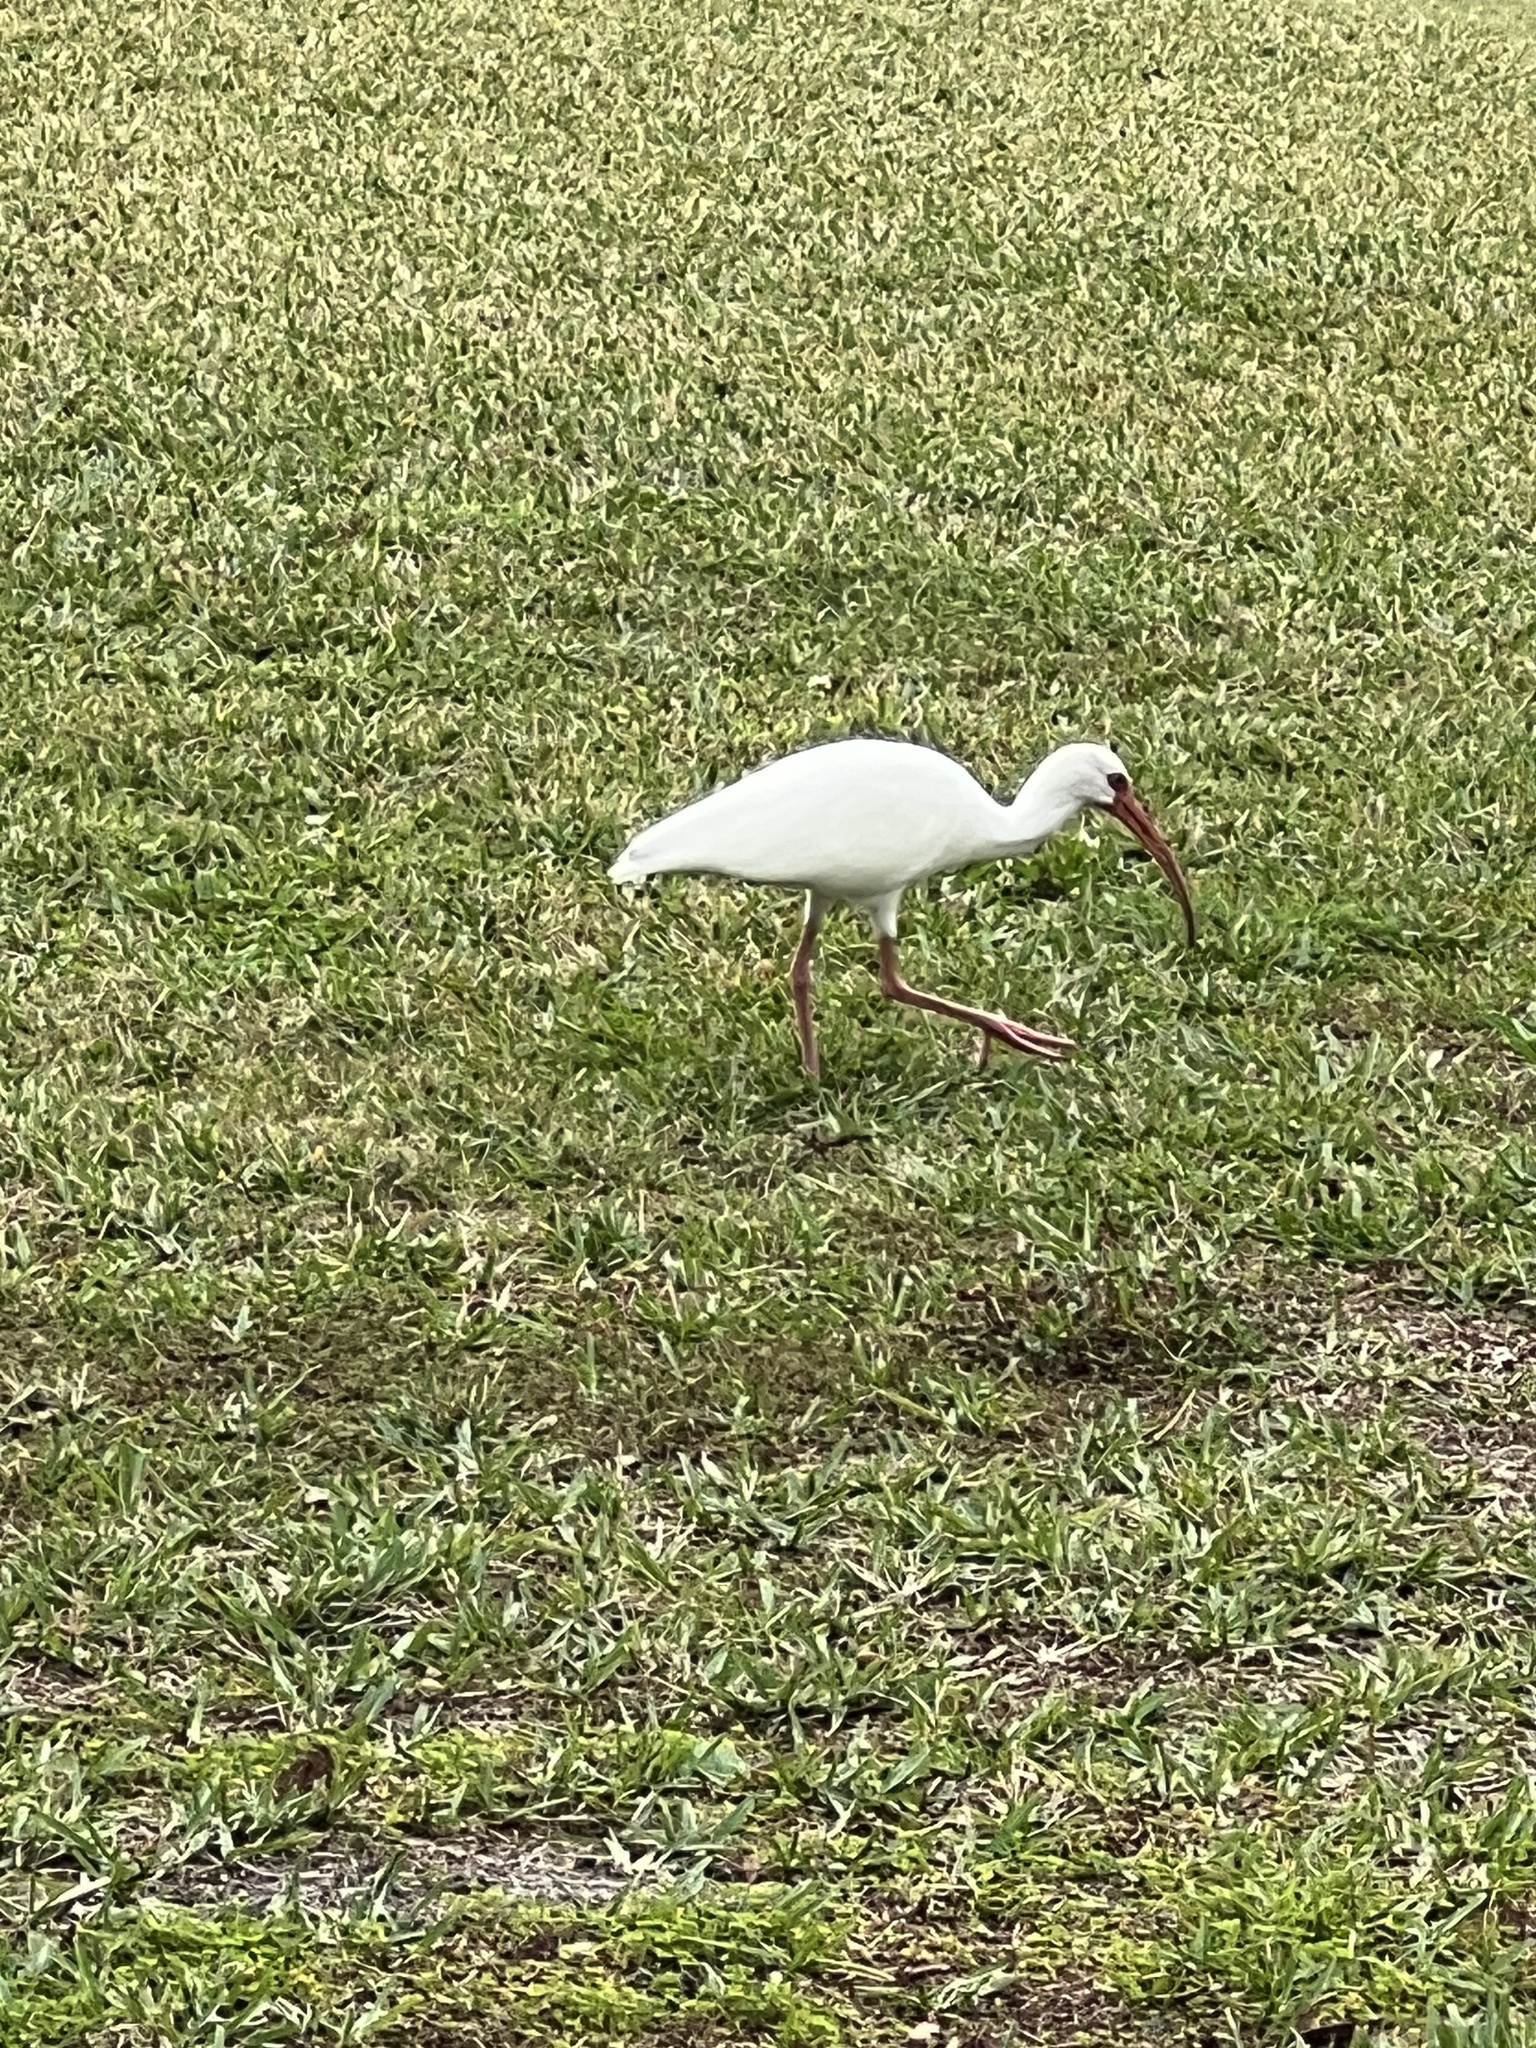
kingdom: Animalia
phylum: Chordata
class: Aves
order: Pelecaniformes
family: Threskiornithidae
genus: Eudocimus
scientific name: Eudocimus albus
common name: White ibis
